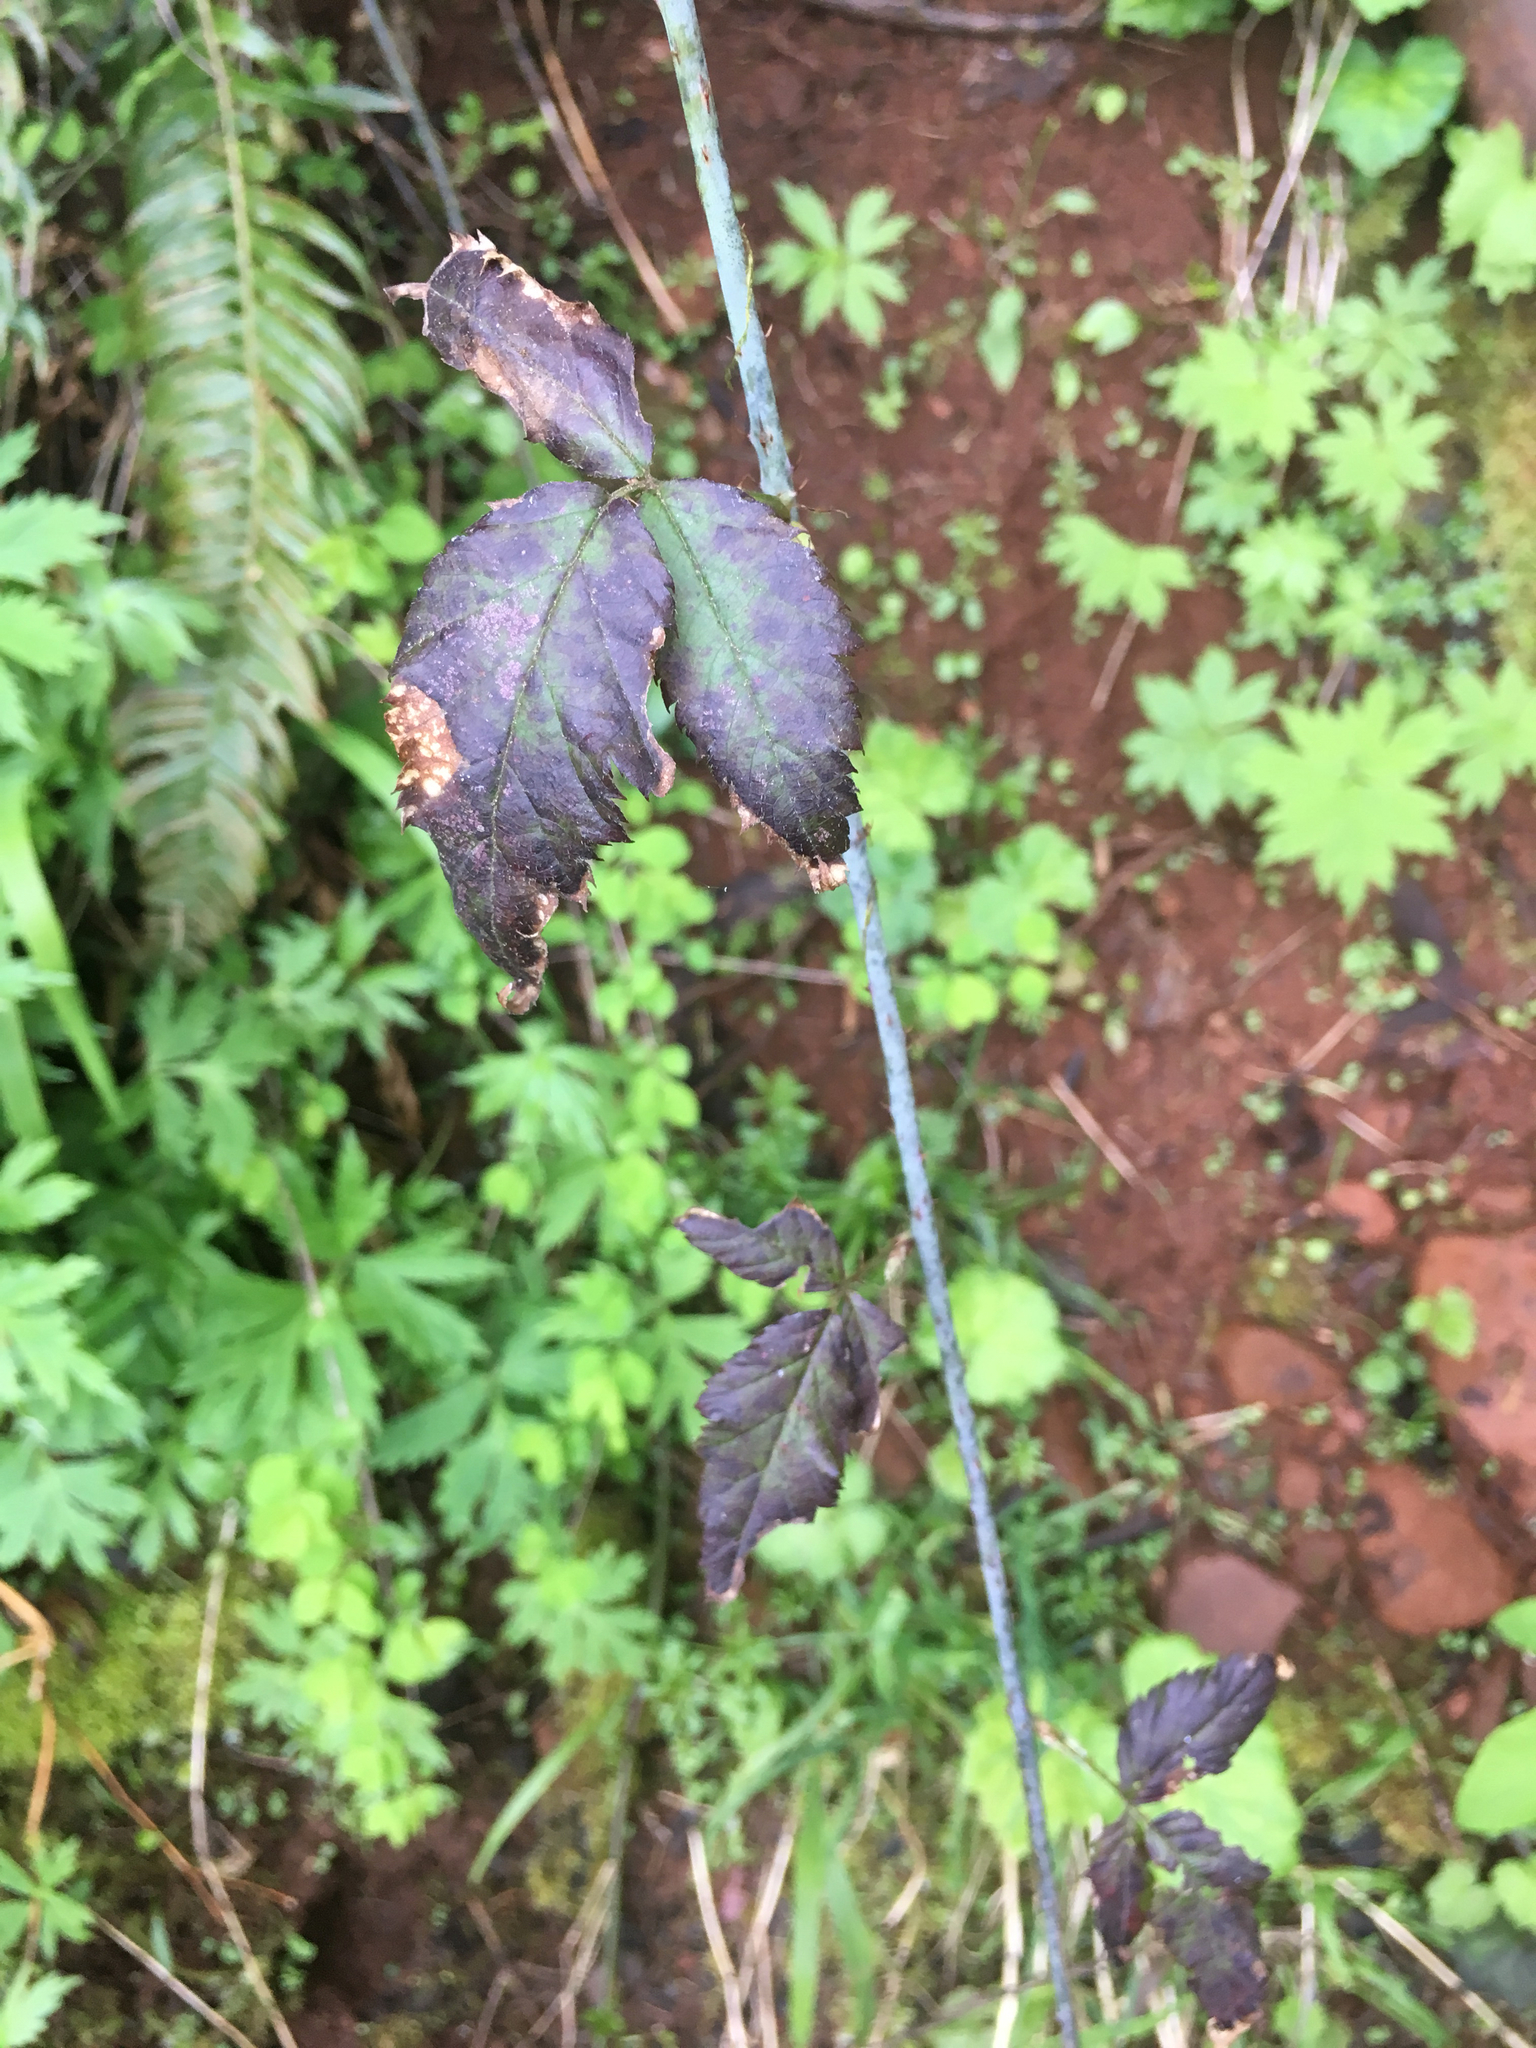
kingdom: Plantae
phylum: Tracheophyta
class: Magnoliopsida
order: Rosales
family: Rosaceae
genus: Rubus
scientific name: Rubus ursinus
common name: Pacific blackberry
